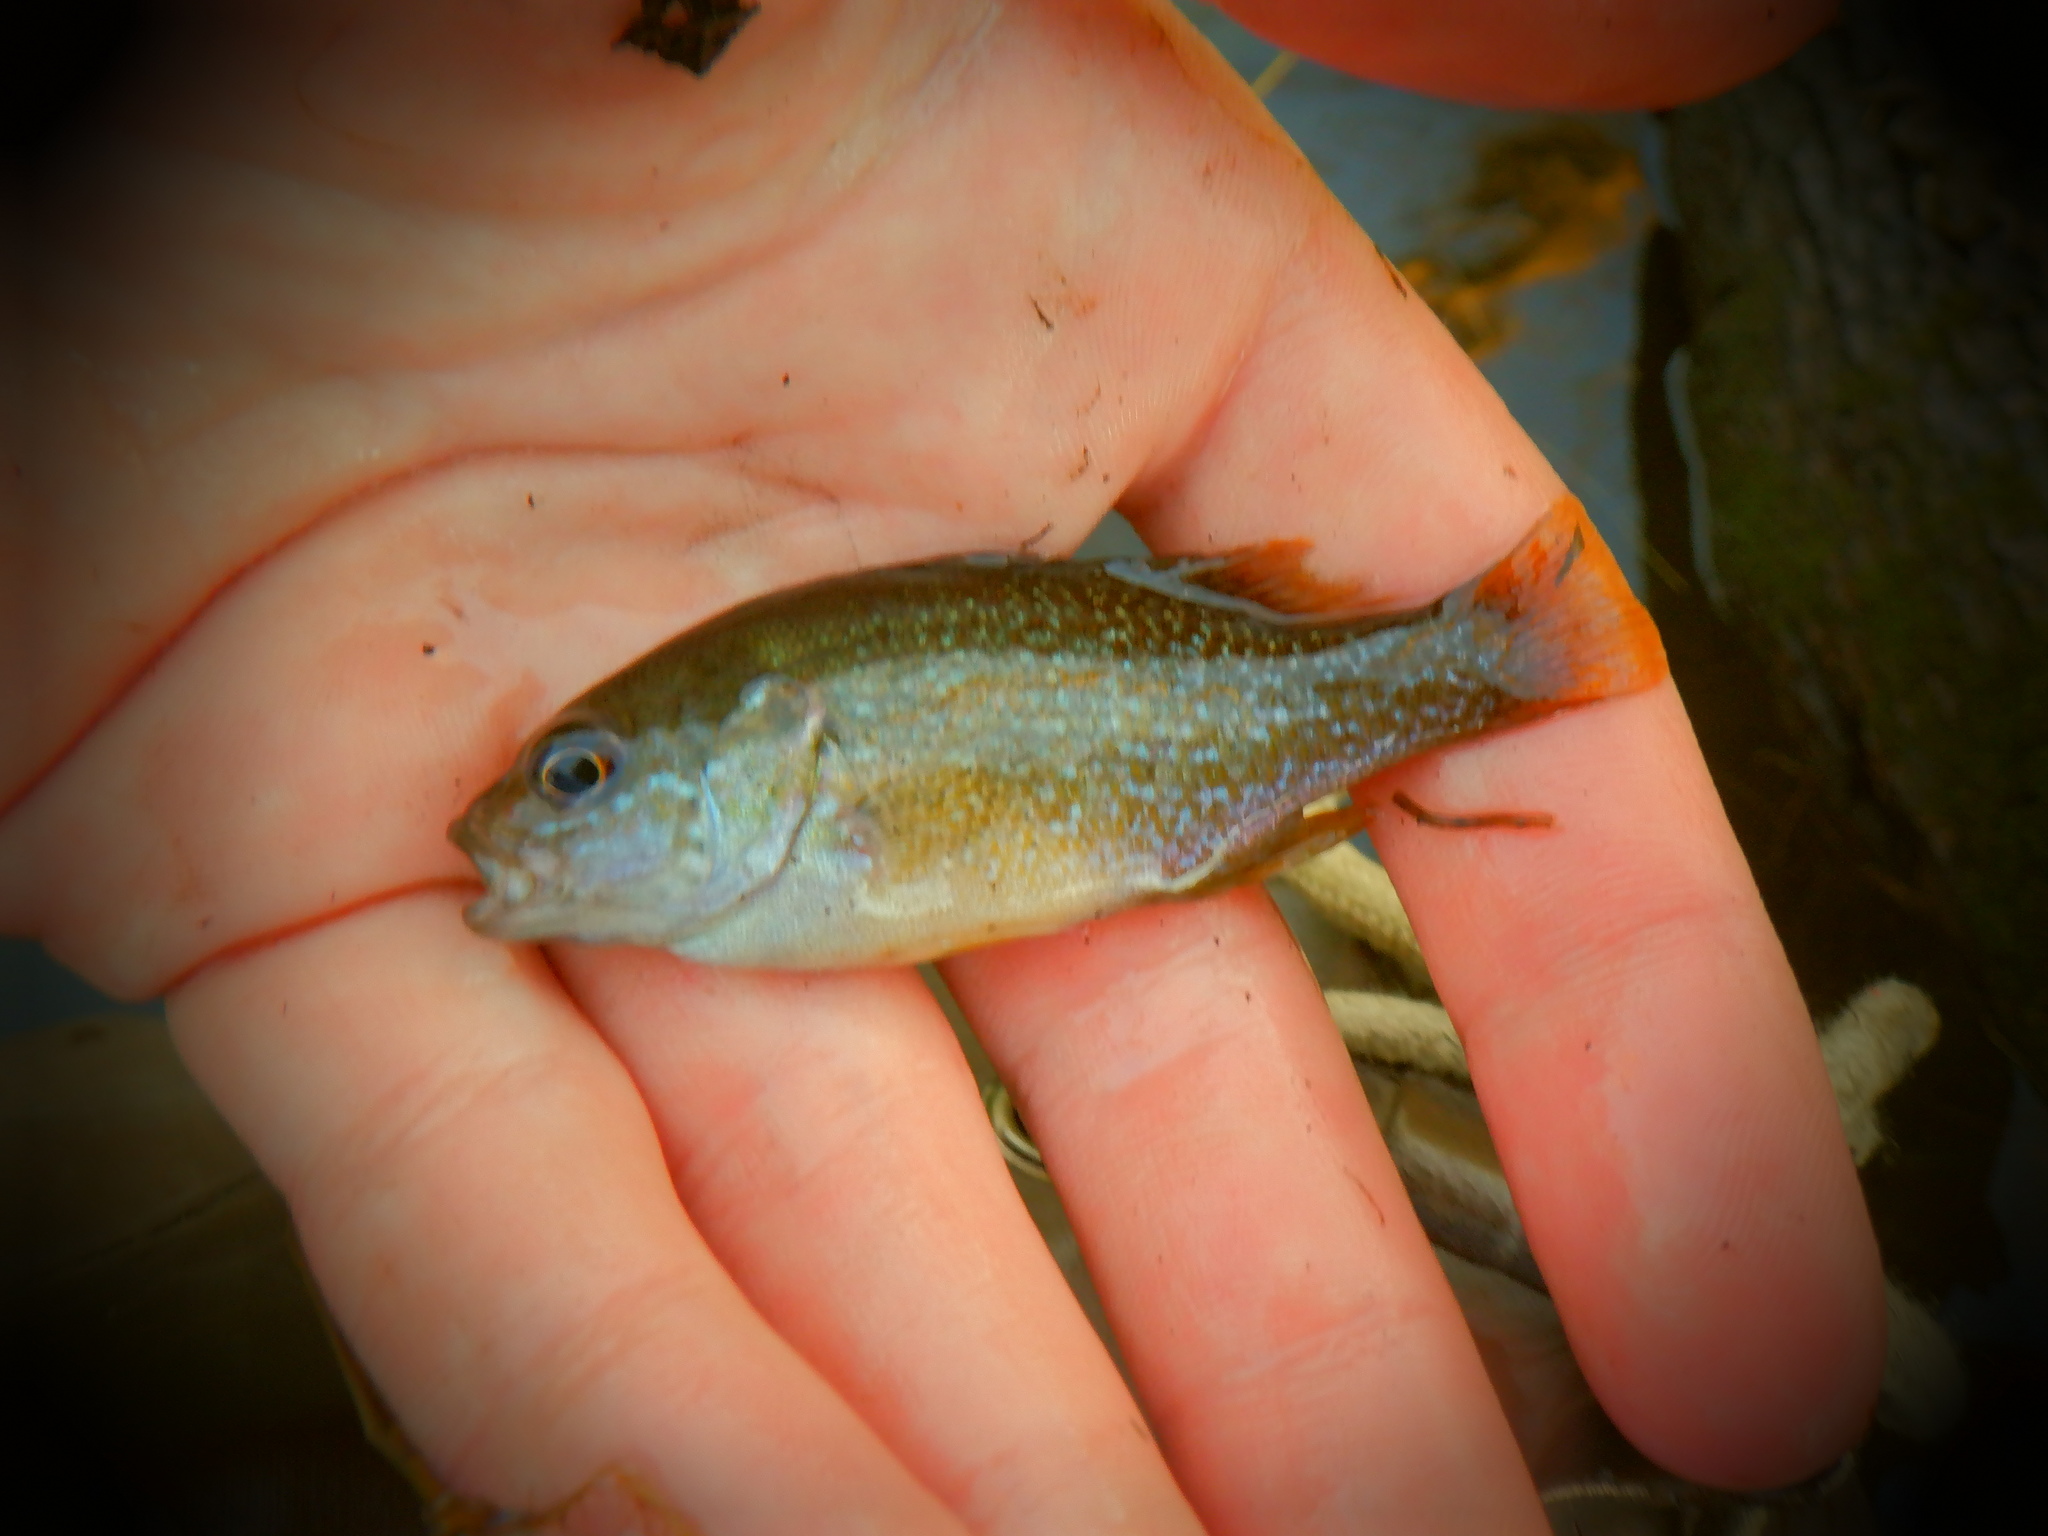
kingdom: Animalia
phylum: Chordata
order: Perciformes
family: Centrarchidae
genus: Lepomis
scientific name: Lepomis cyanellus
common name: Green sunfish
